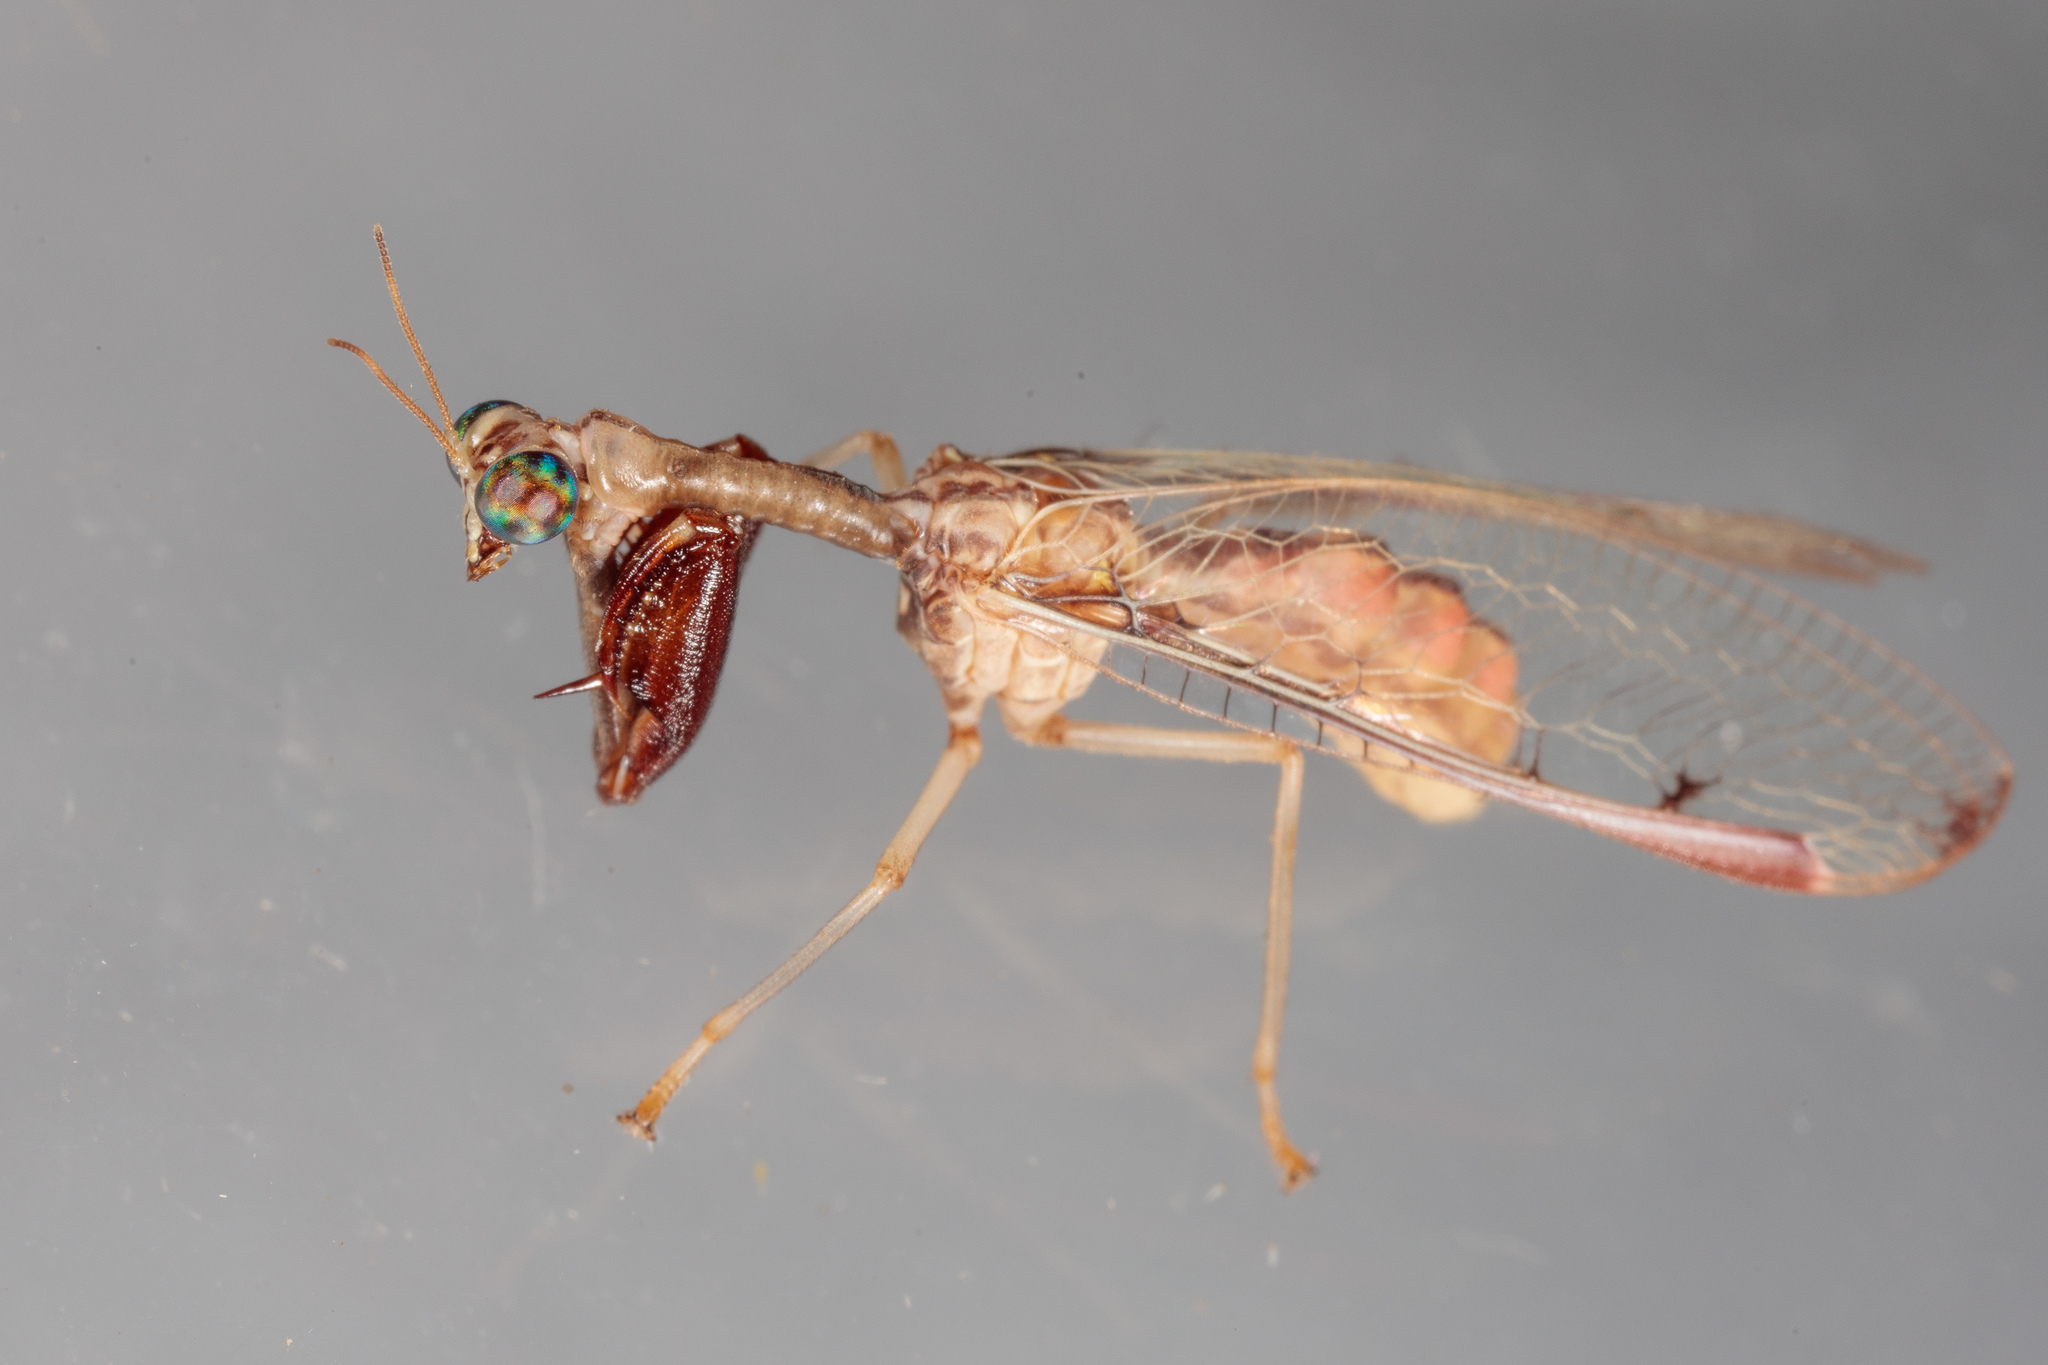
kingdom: Animalia
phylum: Arthropoda
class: Insecta
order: Neuroptera
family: Mantispidae
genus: Dicromantispa
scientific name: Dicromantispa interrupta
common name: Four-spotted mantidfly
